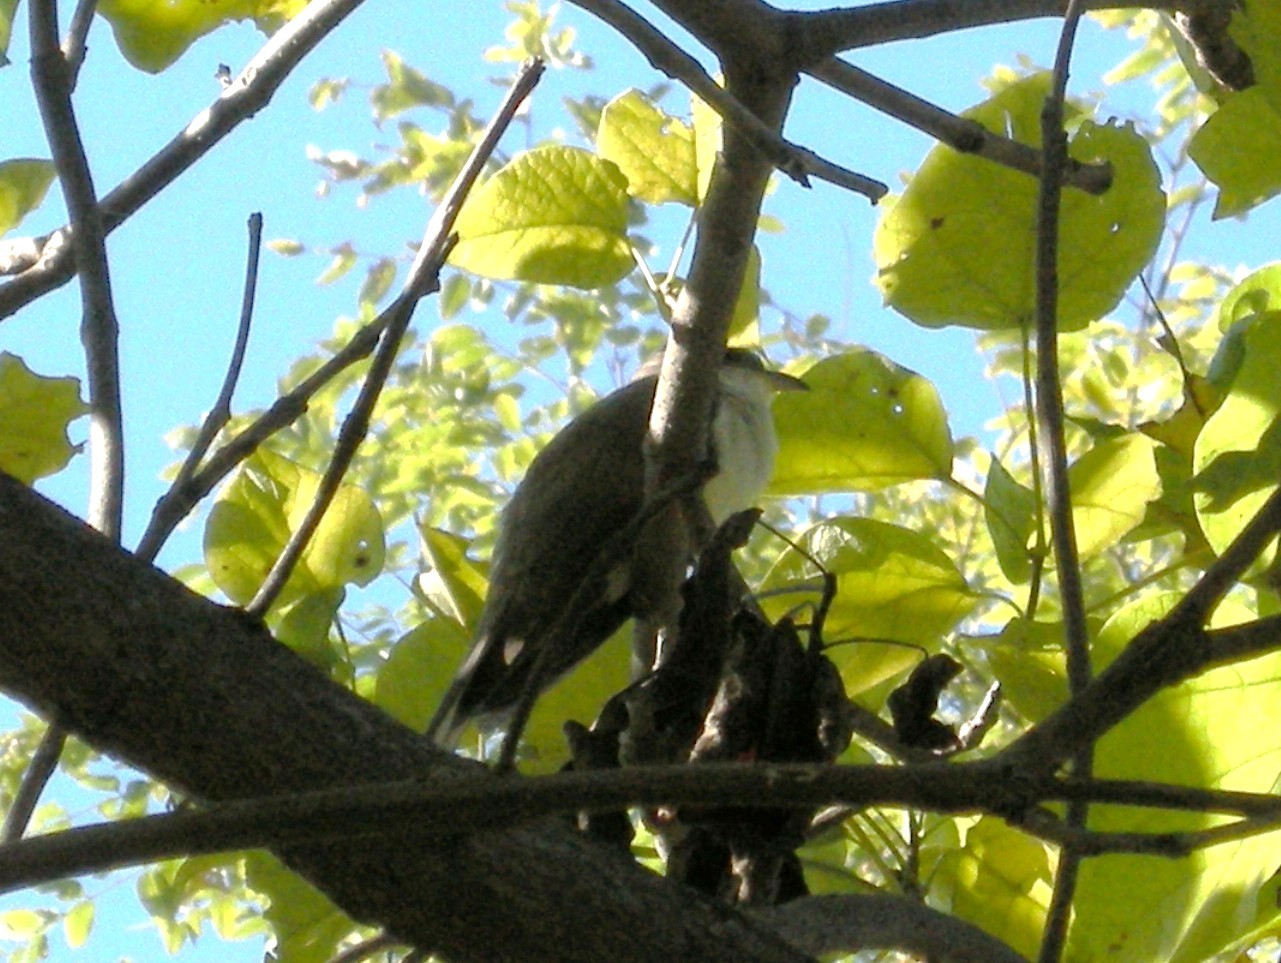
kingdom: Animalia
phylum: Chordata
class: Aves
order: Cuculiformes
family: Cuculidae
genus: Coccyzus
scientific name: Coccyzus americanus
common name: Yellow-billed cuckoo
